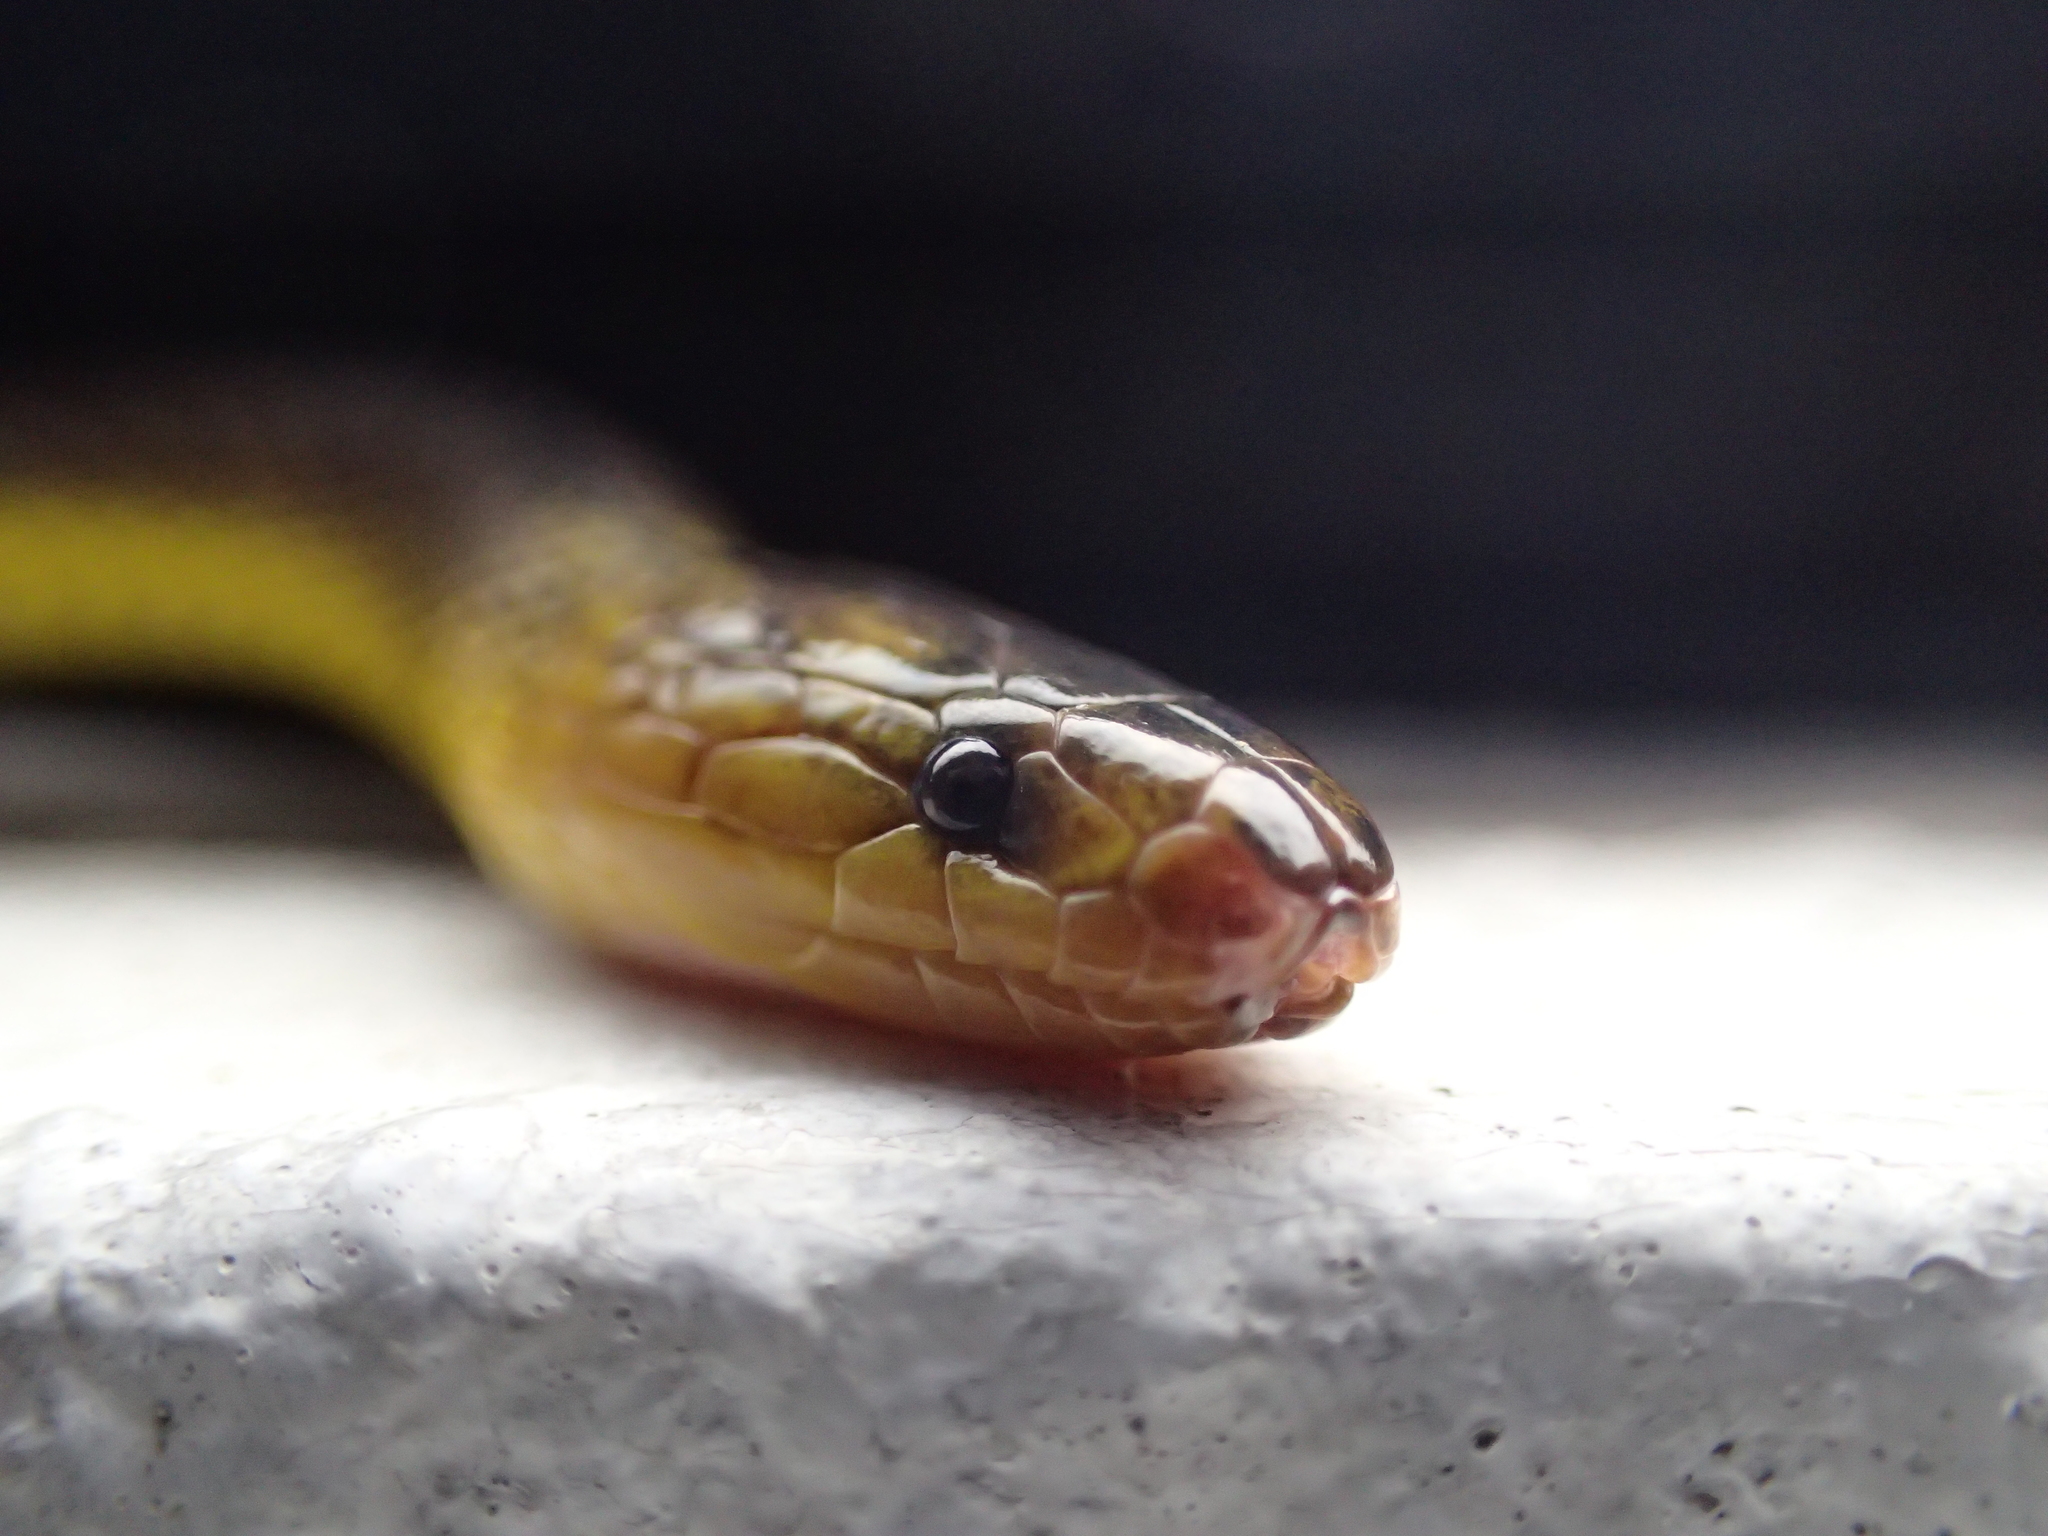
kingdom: Animalia
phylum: Chordata
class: Squamata
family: Xenodermidae
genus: Achalinus
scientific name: Achalinus werneri
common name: Amami takachiho snake
